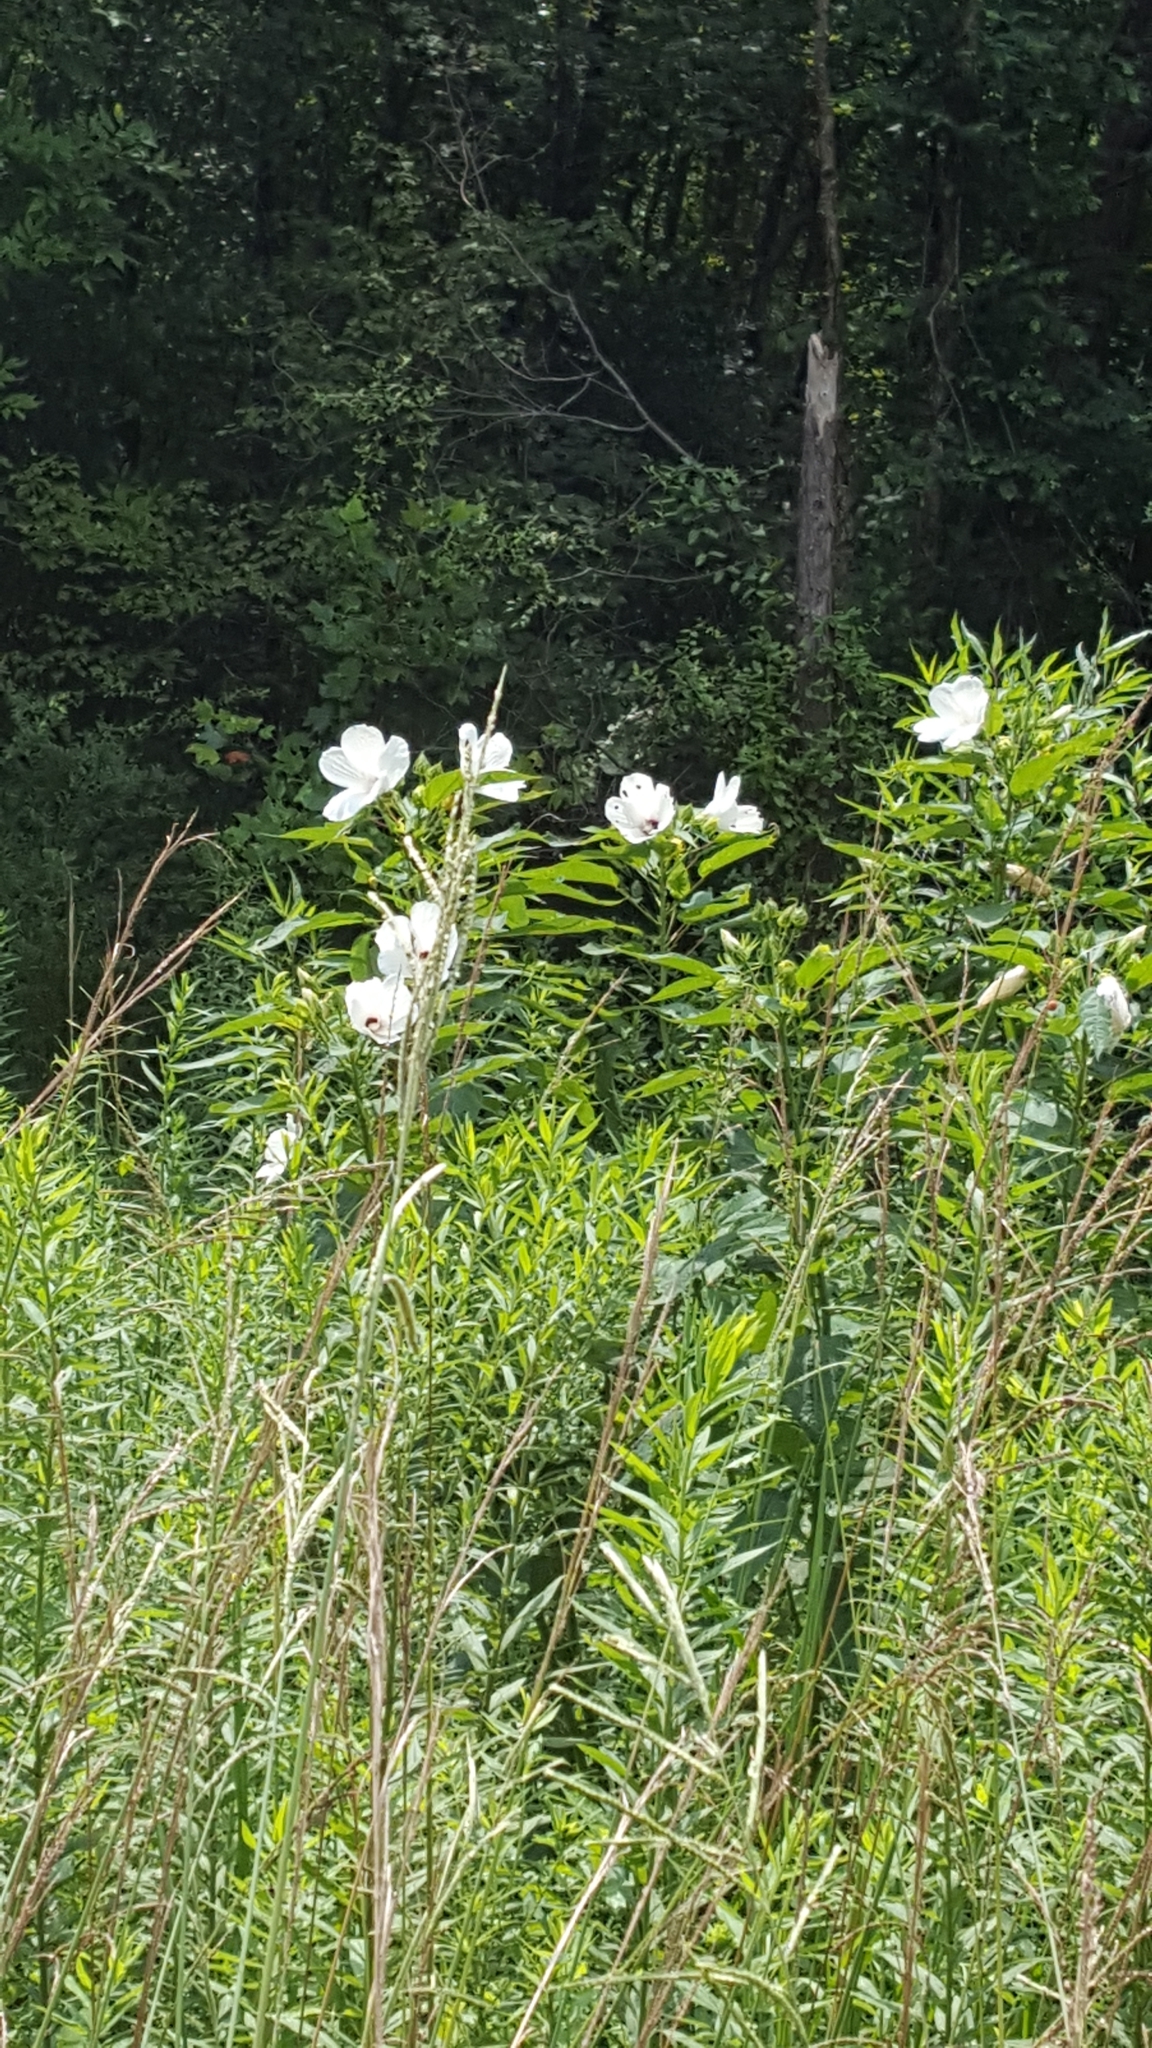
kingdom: Plantae
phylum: Tracheophyta
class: Magnoliopsida
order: Malvales
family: Malvaceae
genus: Hibiscus
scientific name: Hibiscus moscheutos
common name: Common rose-mallow
